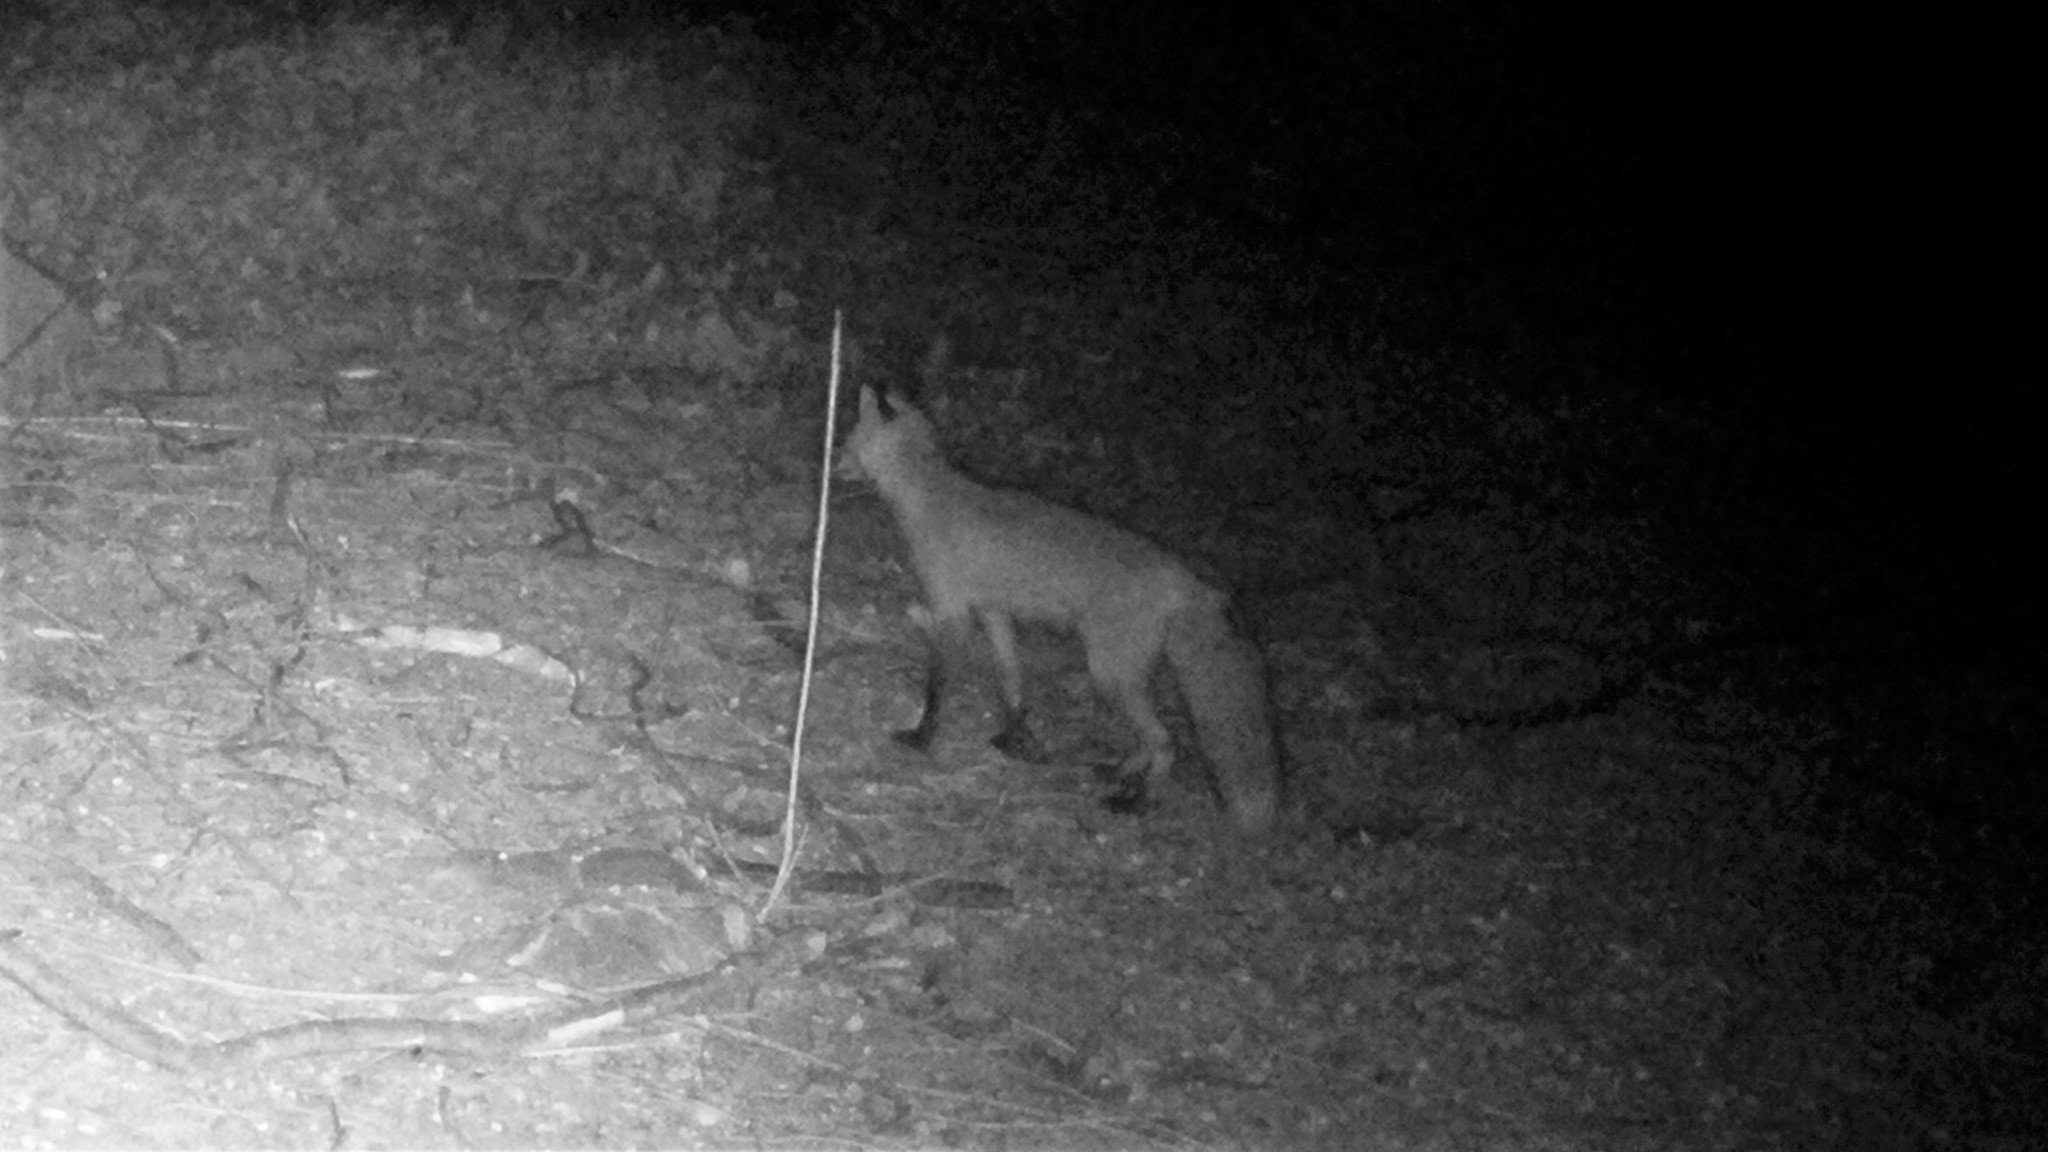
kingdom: Animalia
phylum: Chordata
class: Mammalia
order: Carnivora
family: Canidae
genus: Vulpes
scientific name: Vulpes vulpes
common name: Red fox
